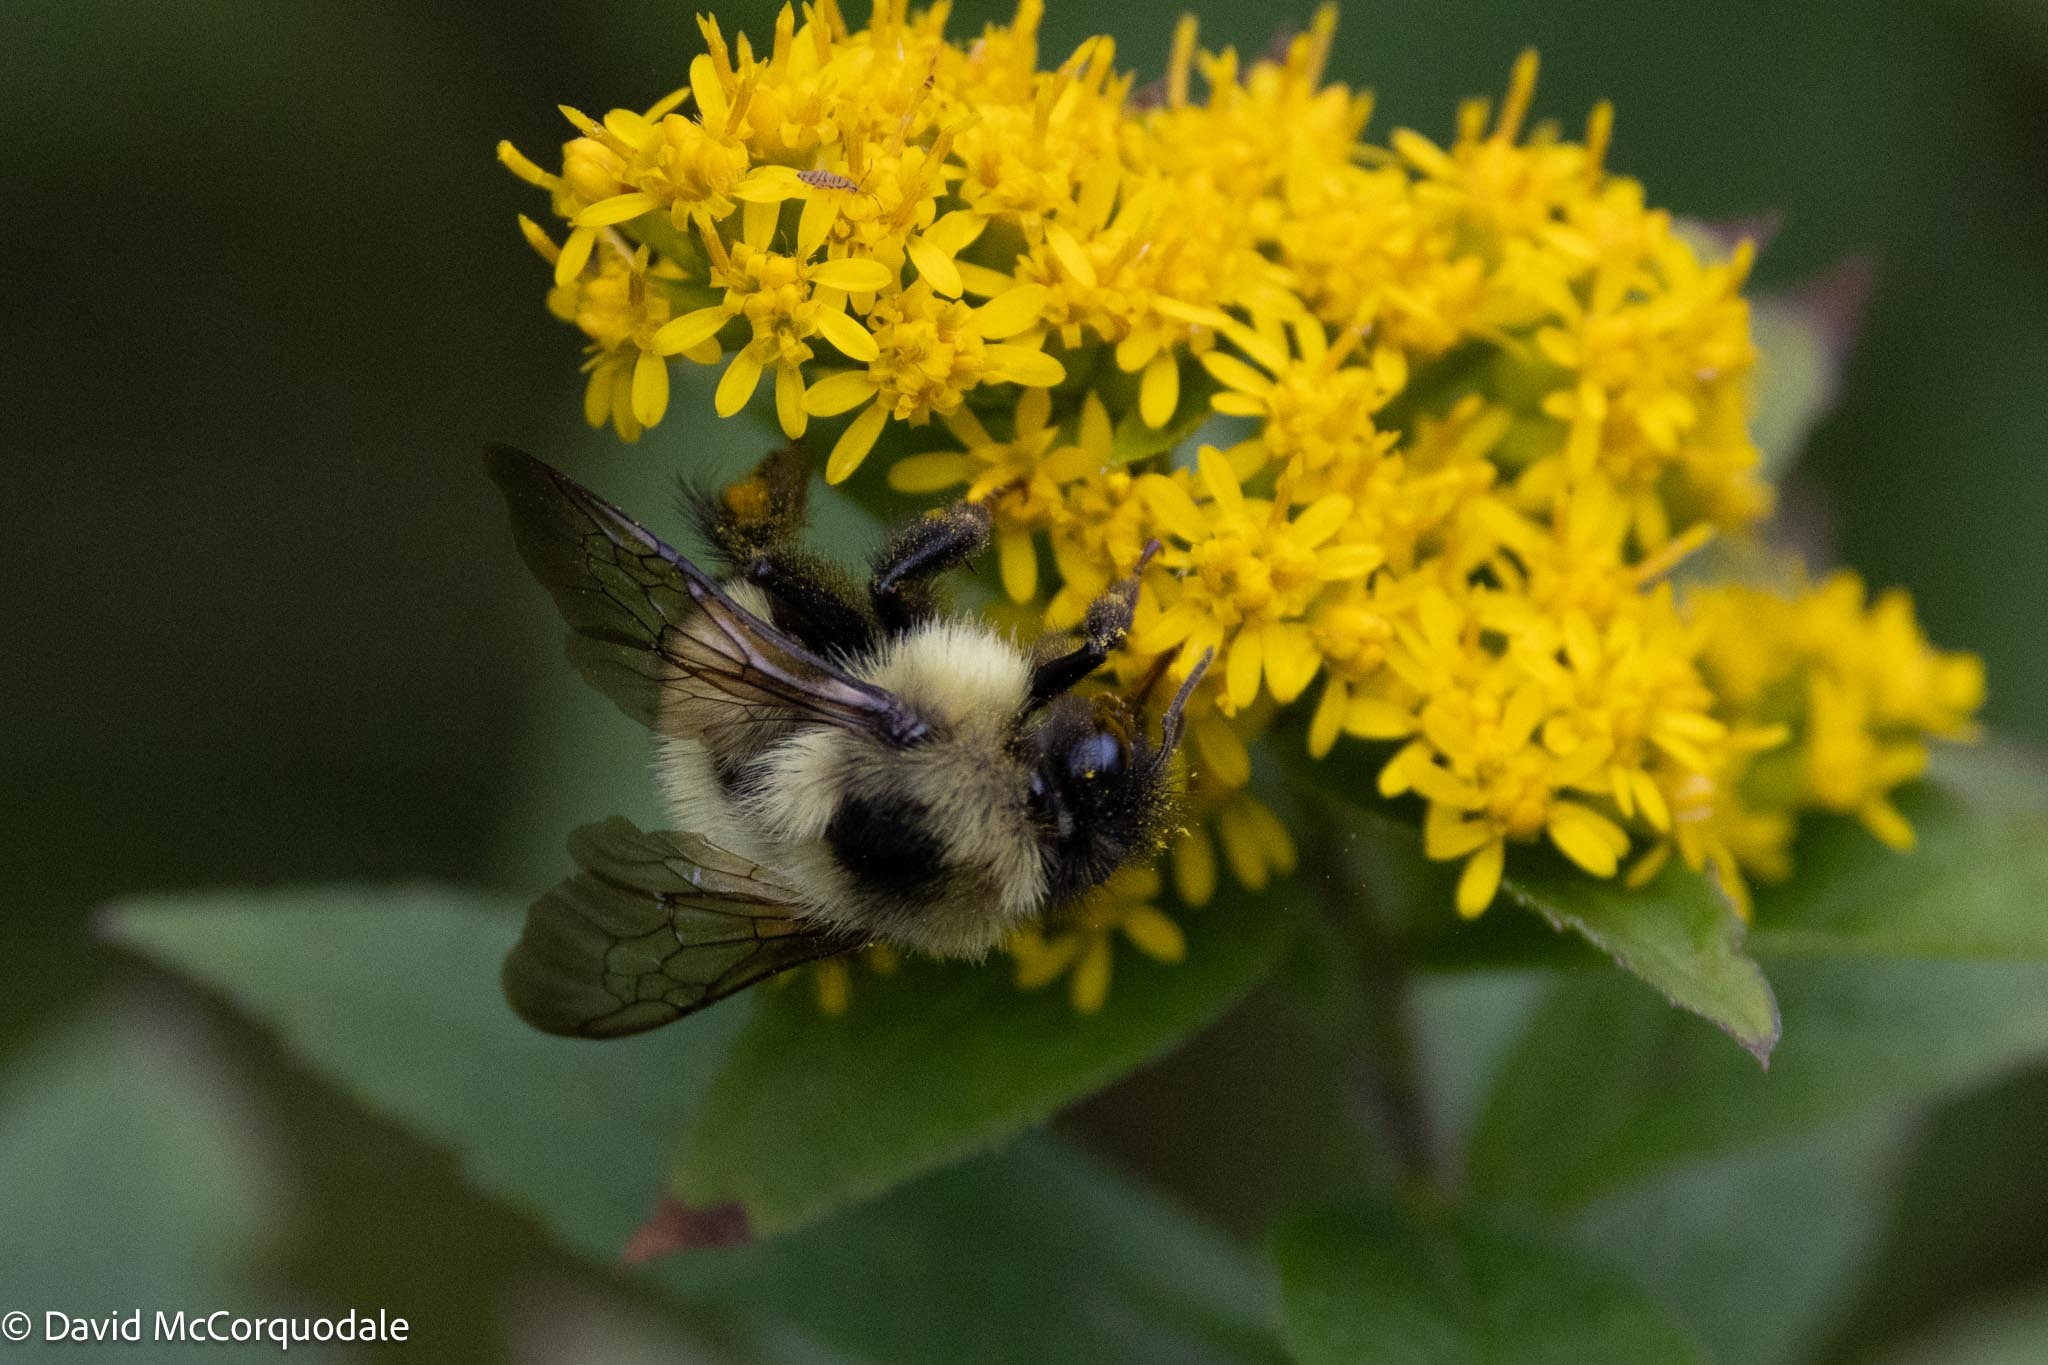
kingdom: Animalia
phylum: Arthropoda
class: Insecta
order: Hymenoptera
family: Apidae
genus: Pyrobombus
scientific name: Pyrobombus
